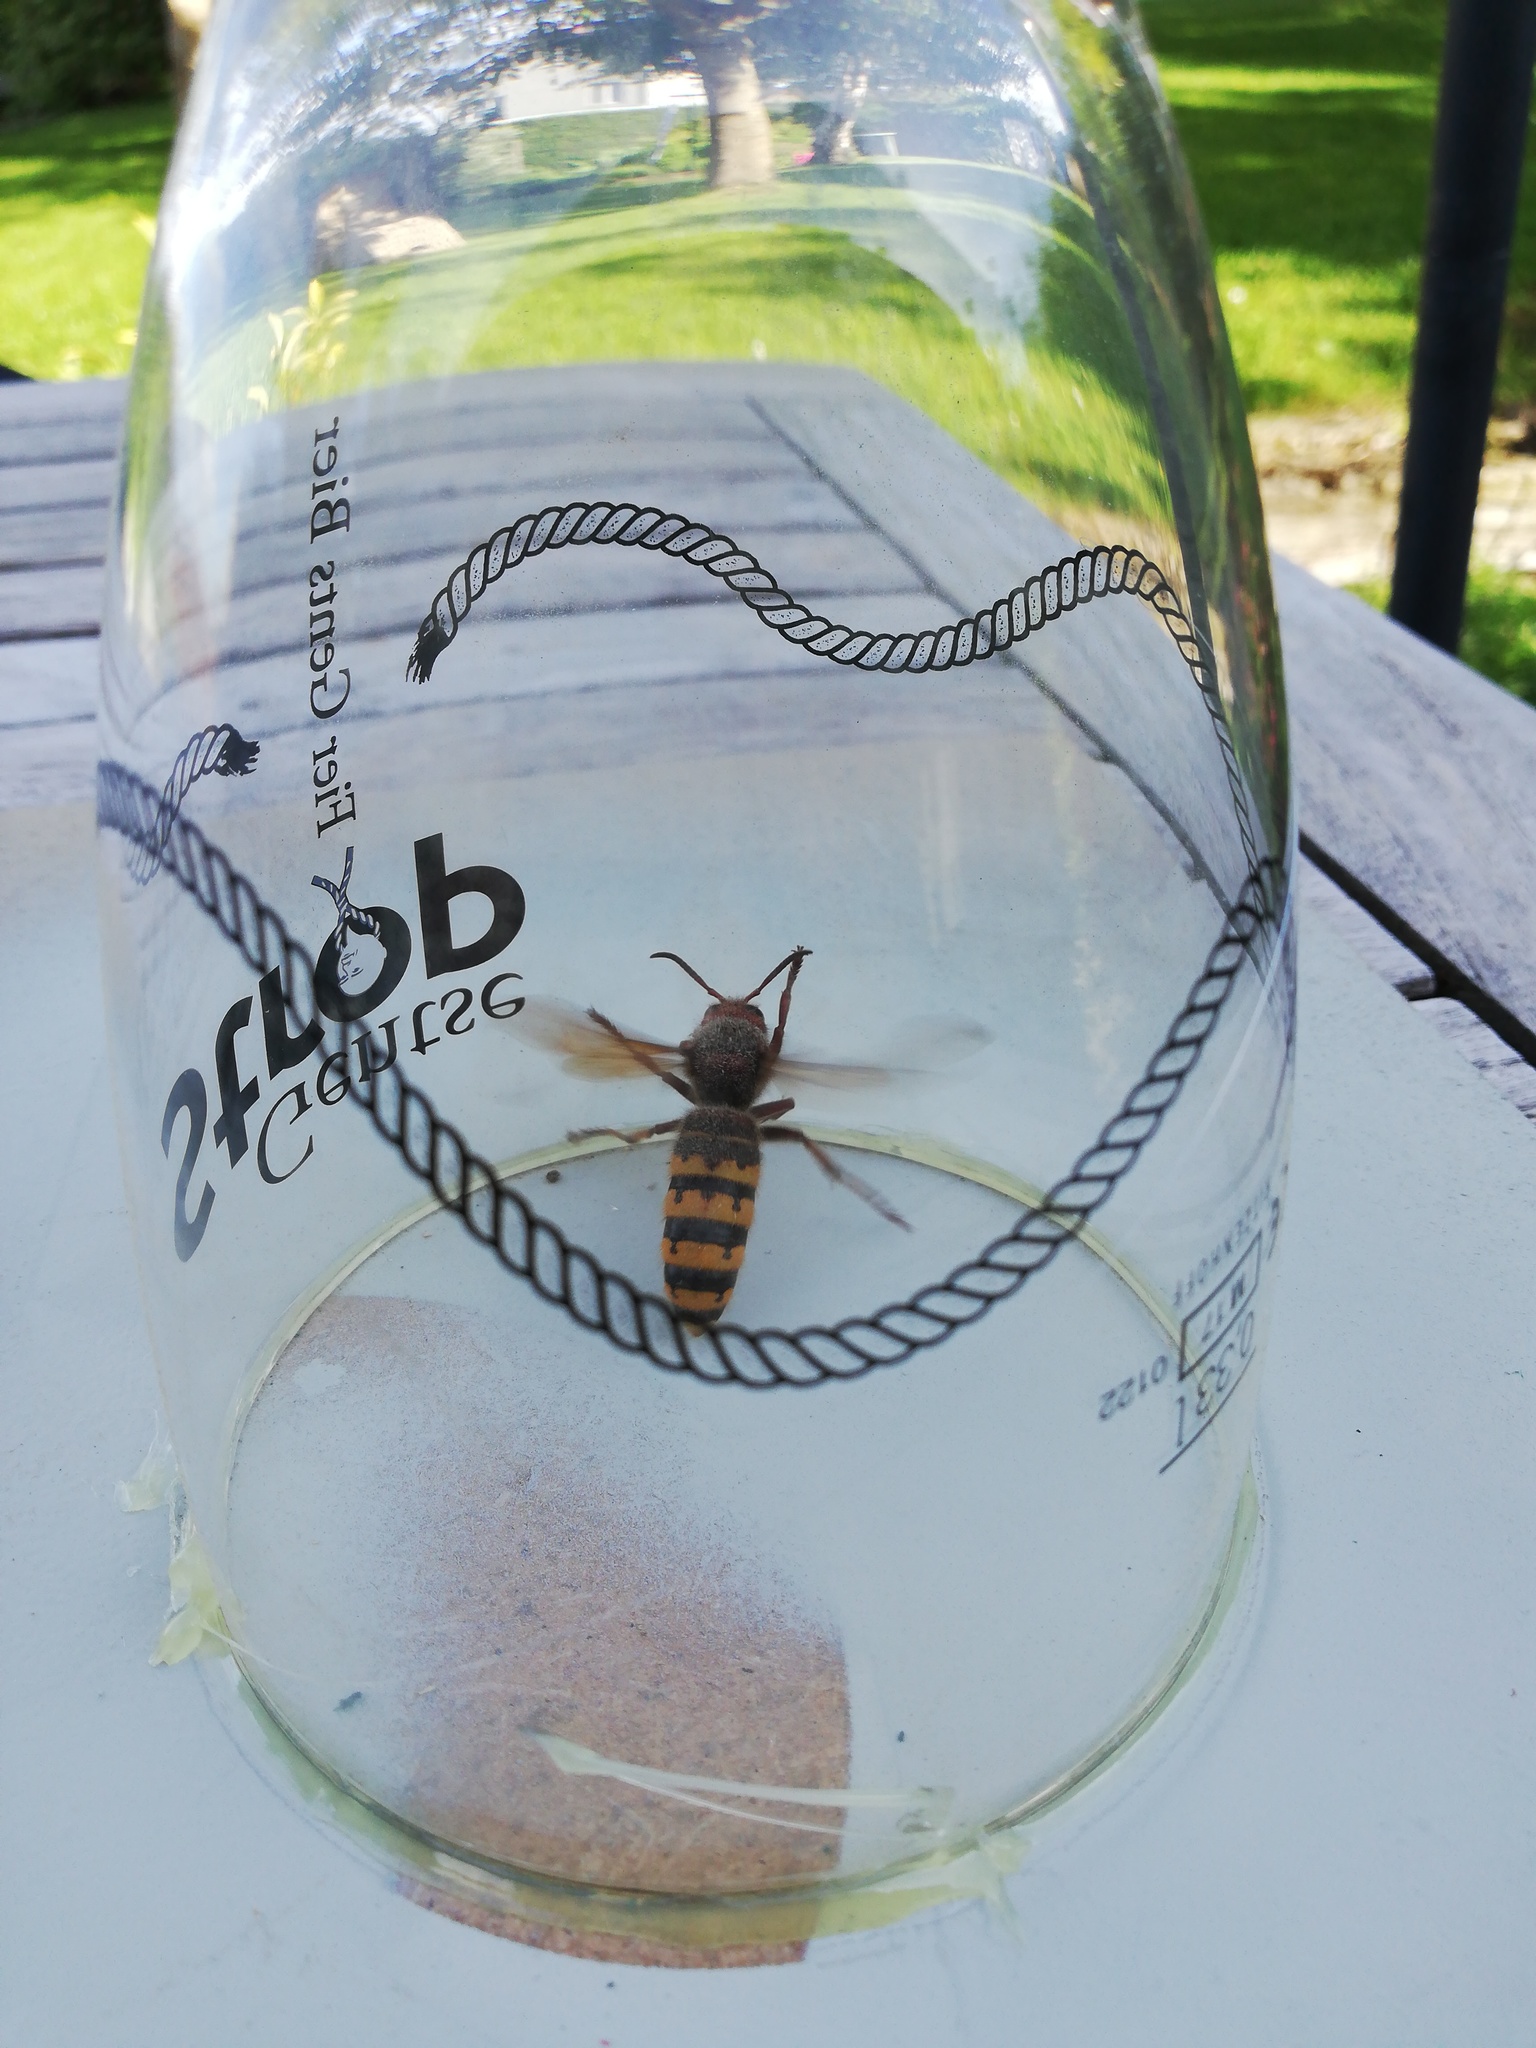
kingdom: Animalia
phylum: Arthropoda
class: Insecta
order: Hymenoptera
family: Vespidae
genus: Vespa
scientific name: Vespa crabro
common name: Hornet
